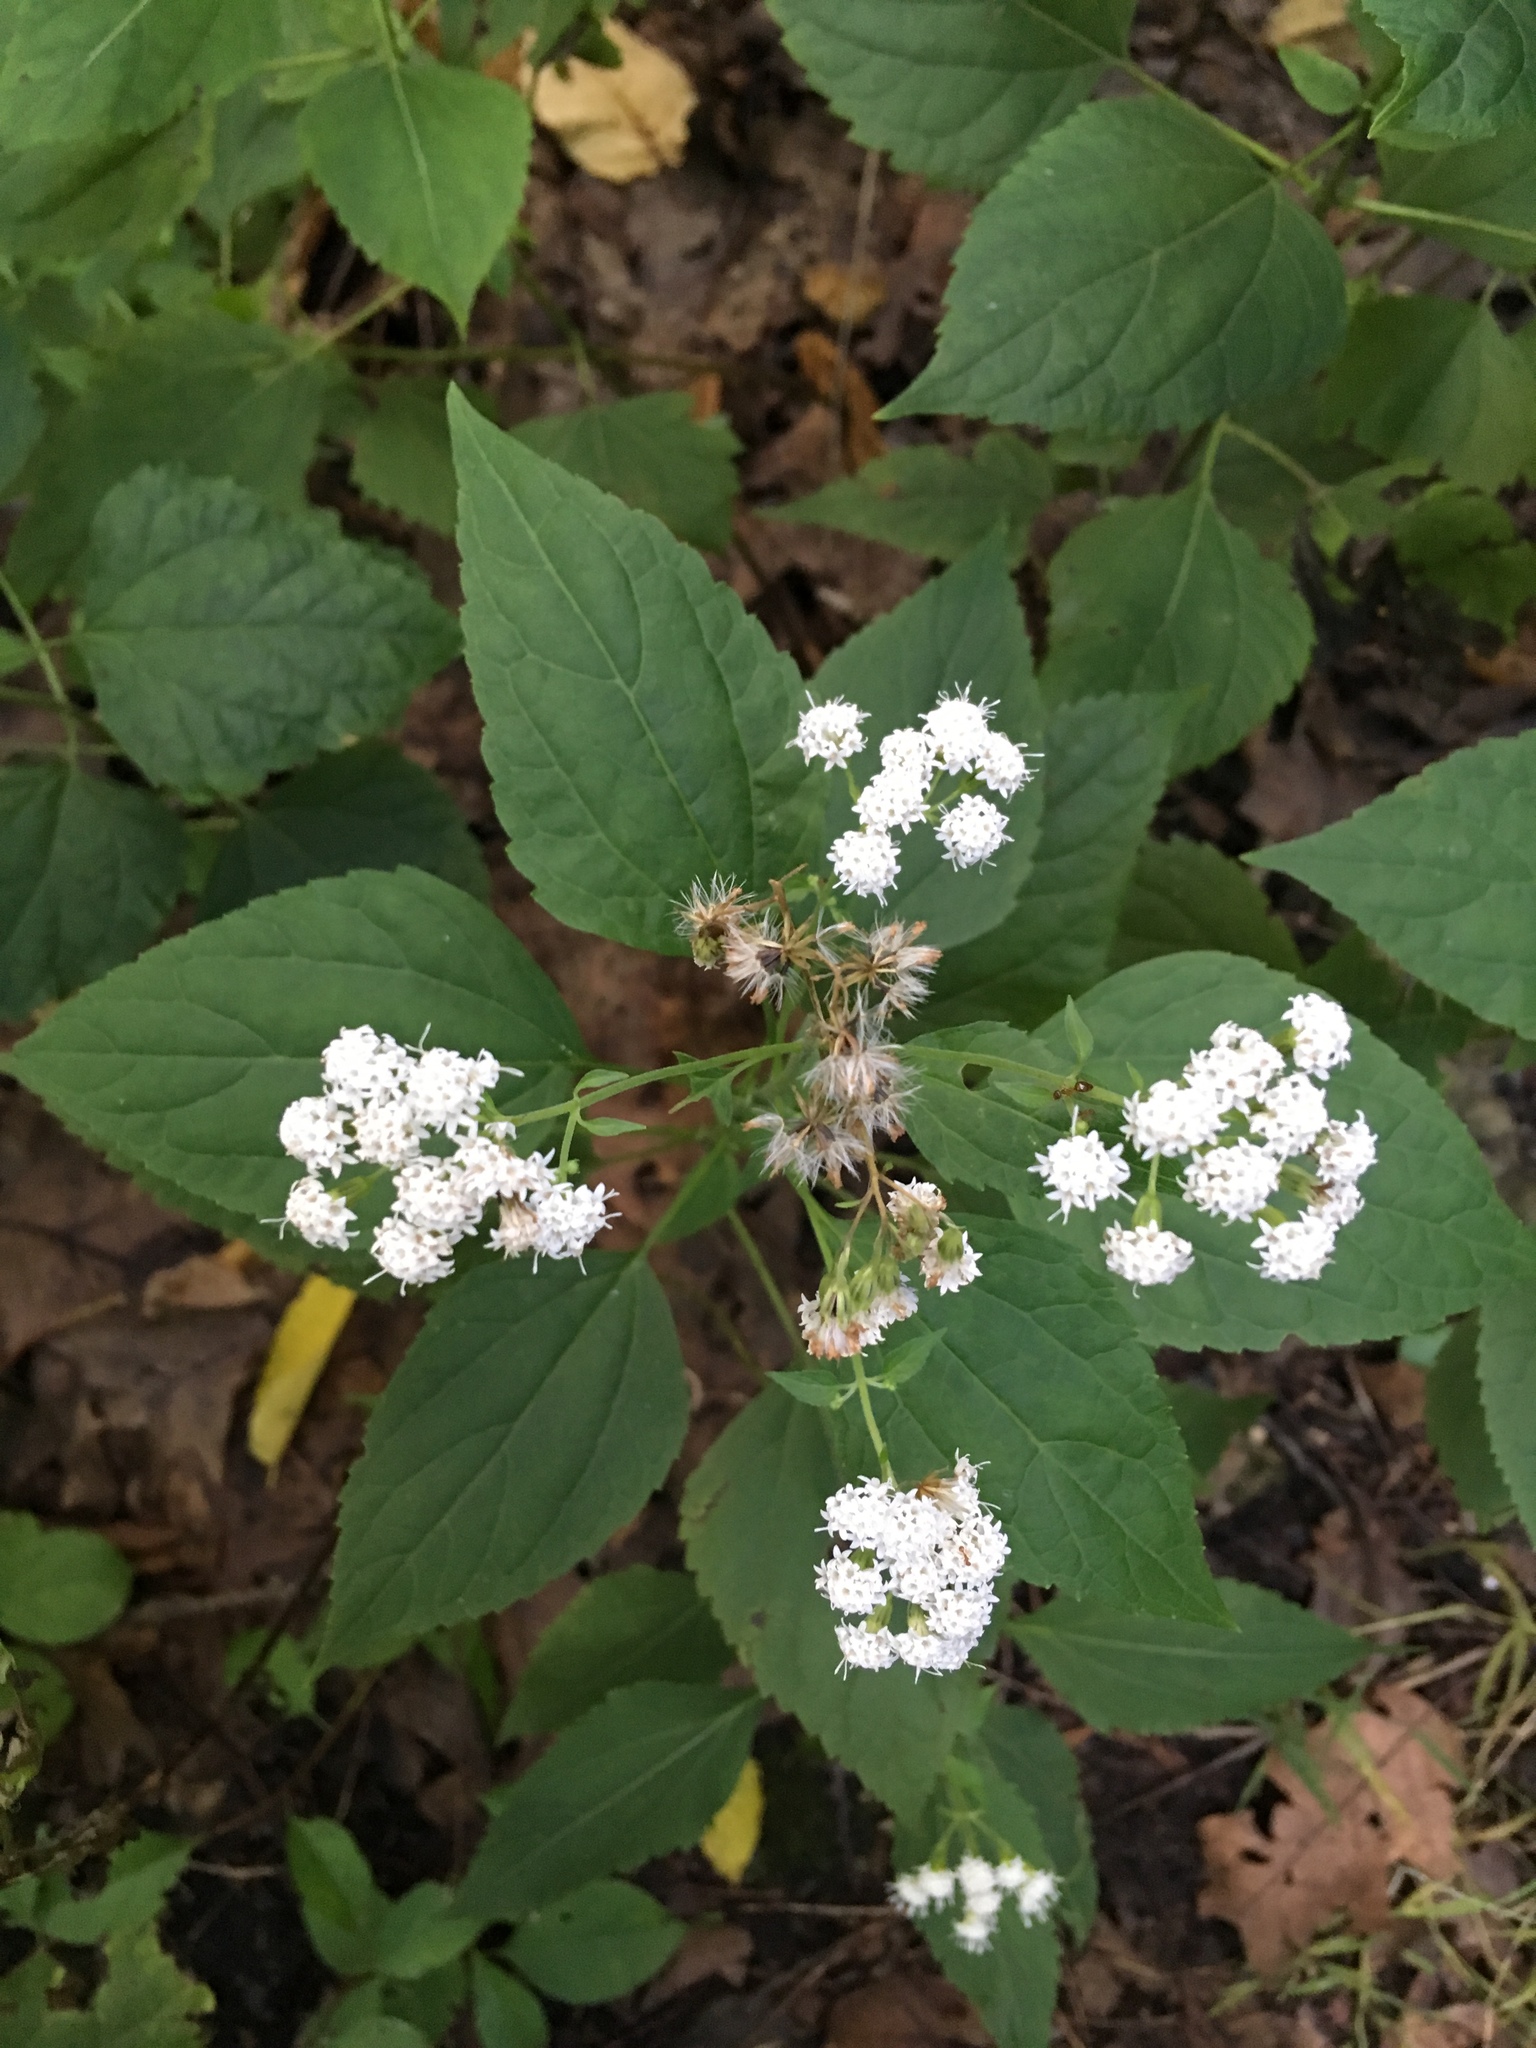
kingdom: Plantae
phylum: Tracheophyta
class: Magnoliopsida
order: Asterales
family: Asteraceae
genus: Ageratina
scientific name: Ageratina altissima
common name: White snakeroot
